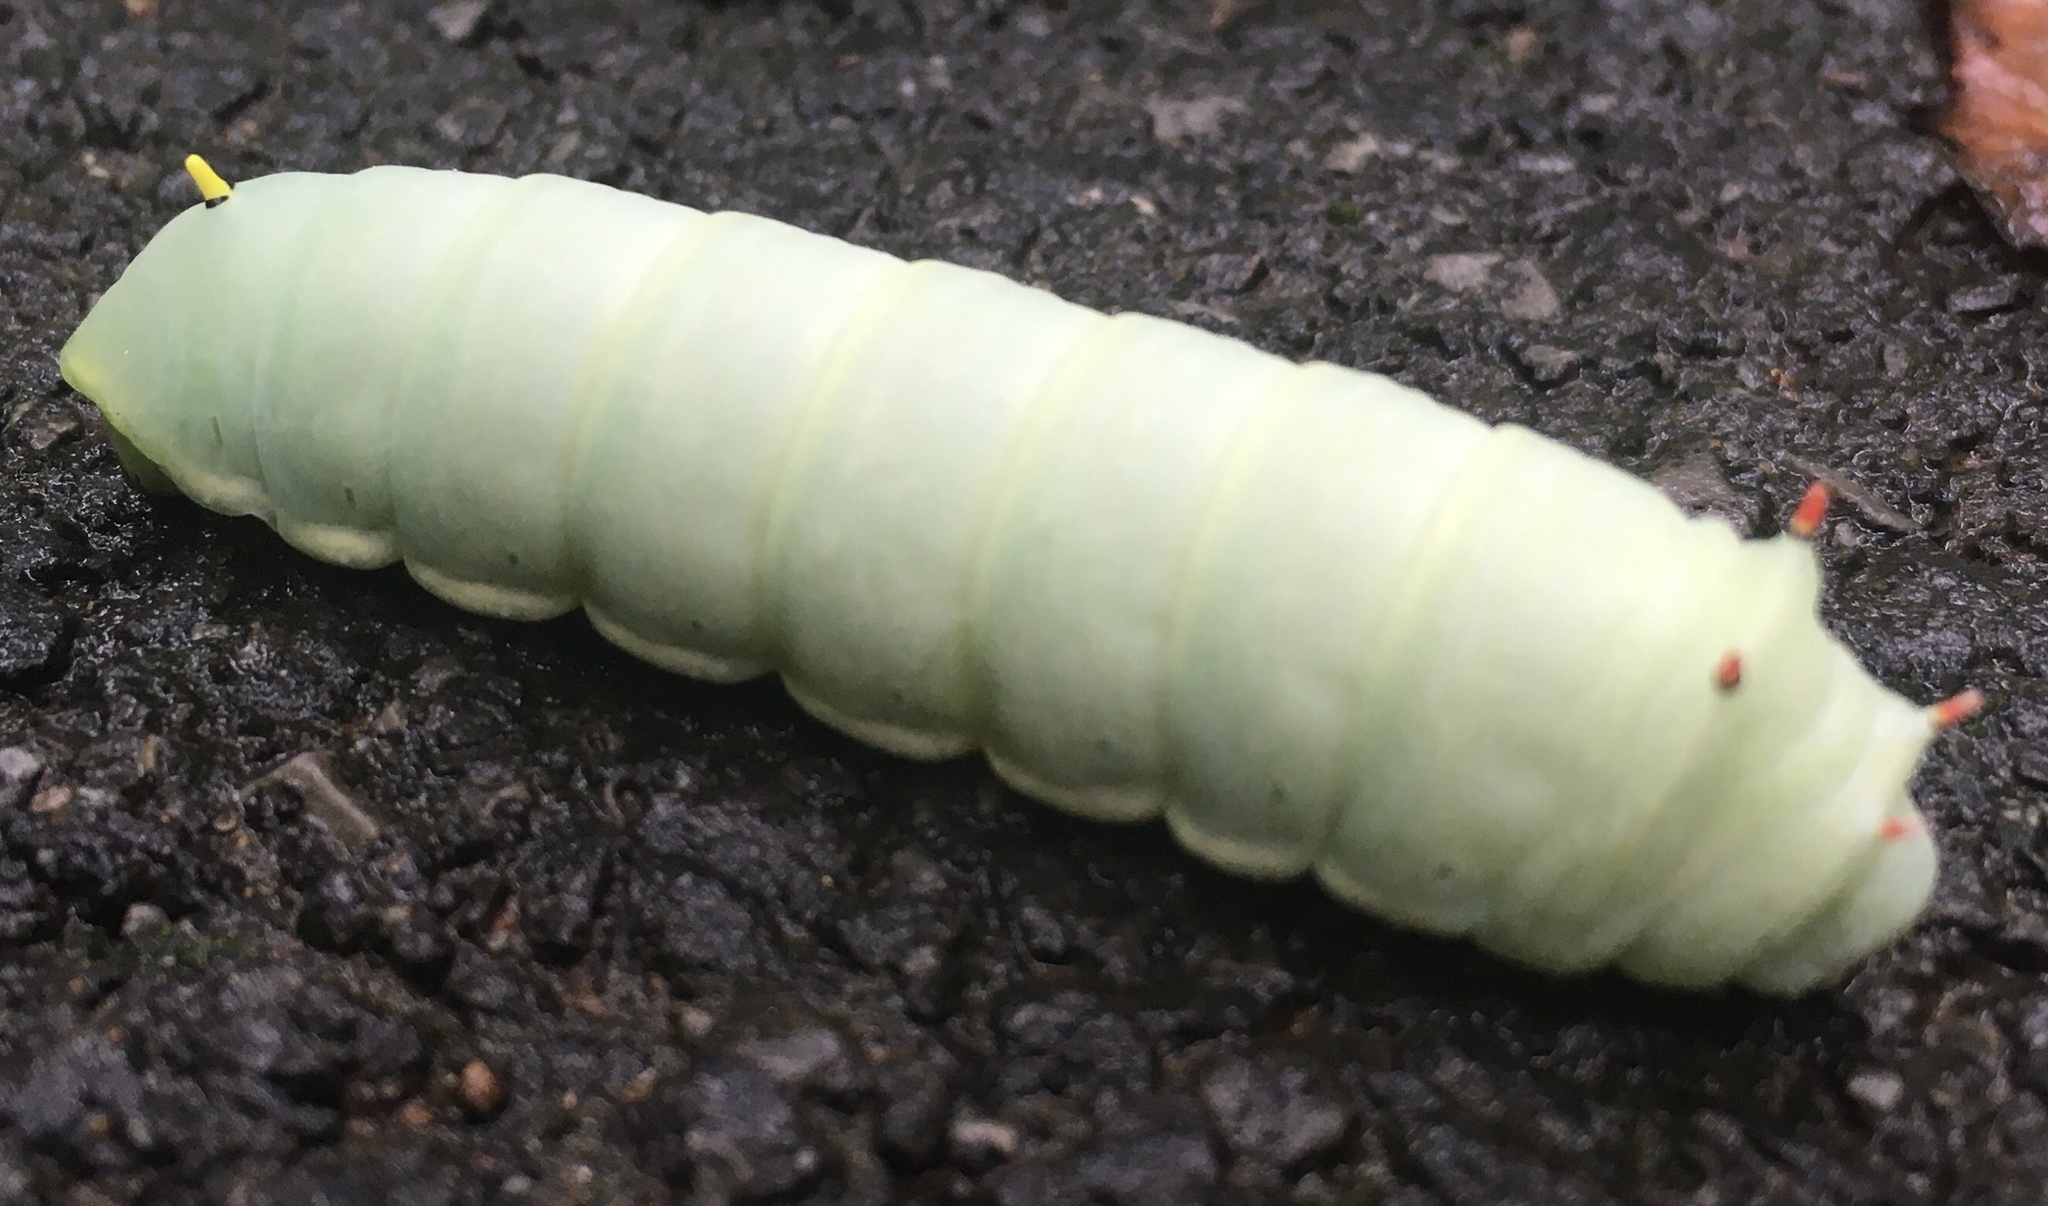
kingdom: Animalia
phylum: Arthropoda
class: Insecta
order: Lepidoptera
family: Saturniidae
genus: Callosamia
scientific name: Callosamia angulifera
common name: Tulip tree silkmoth
